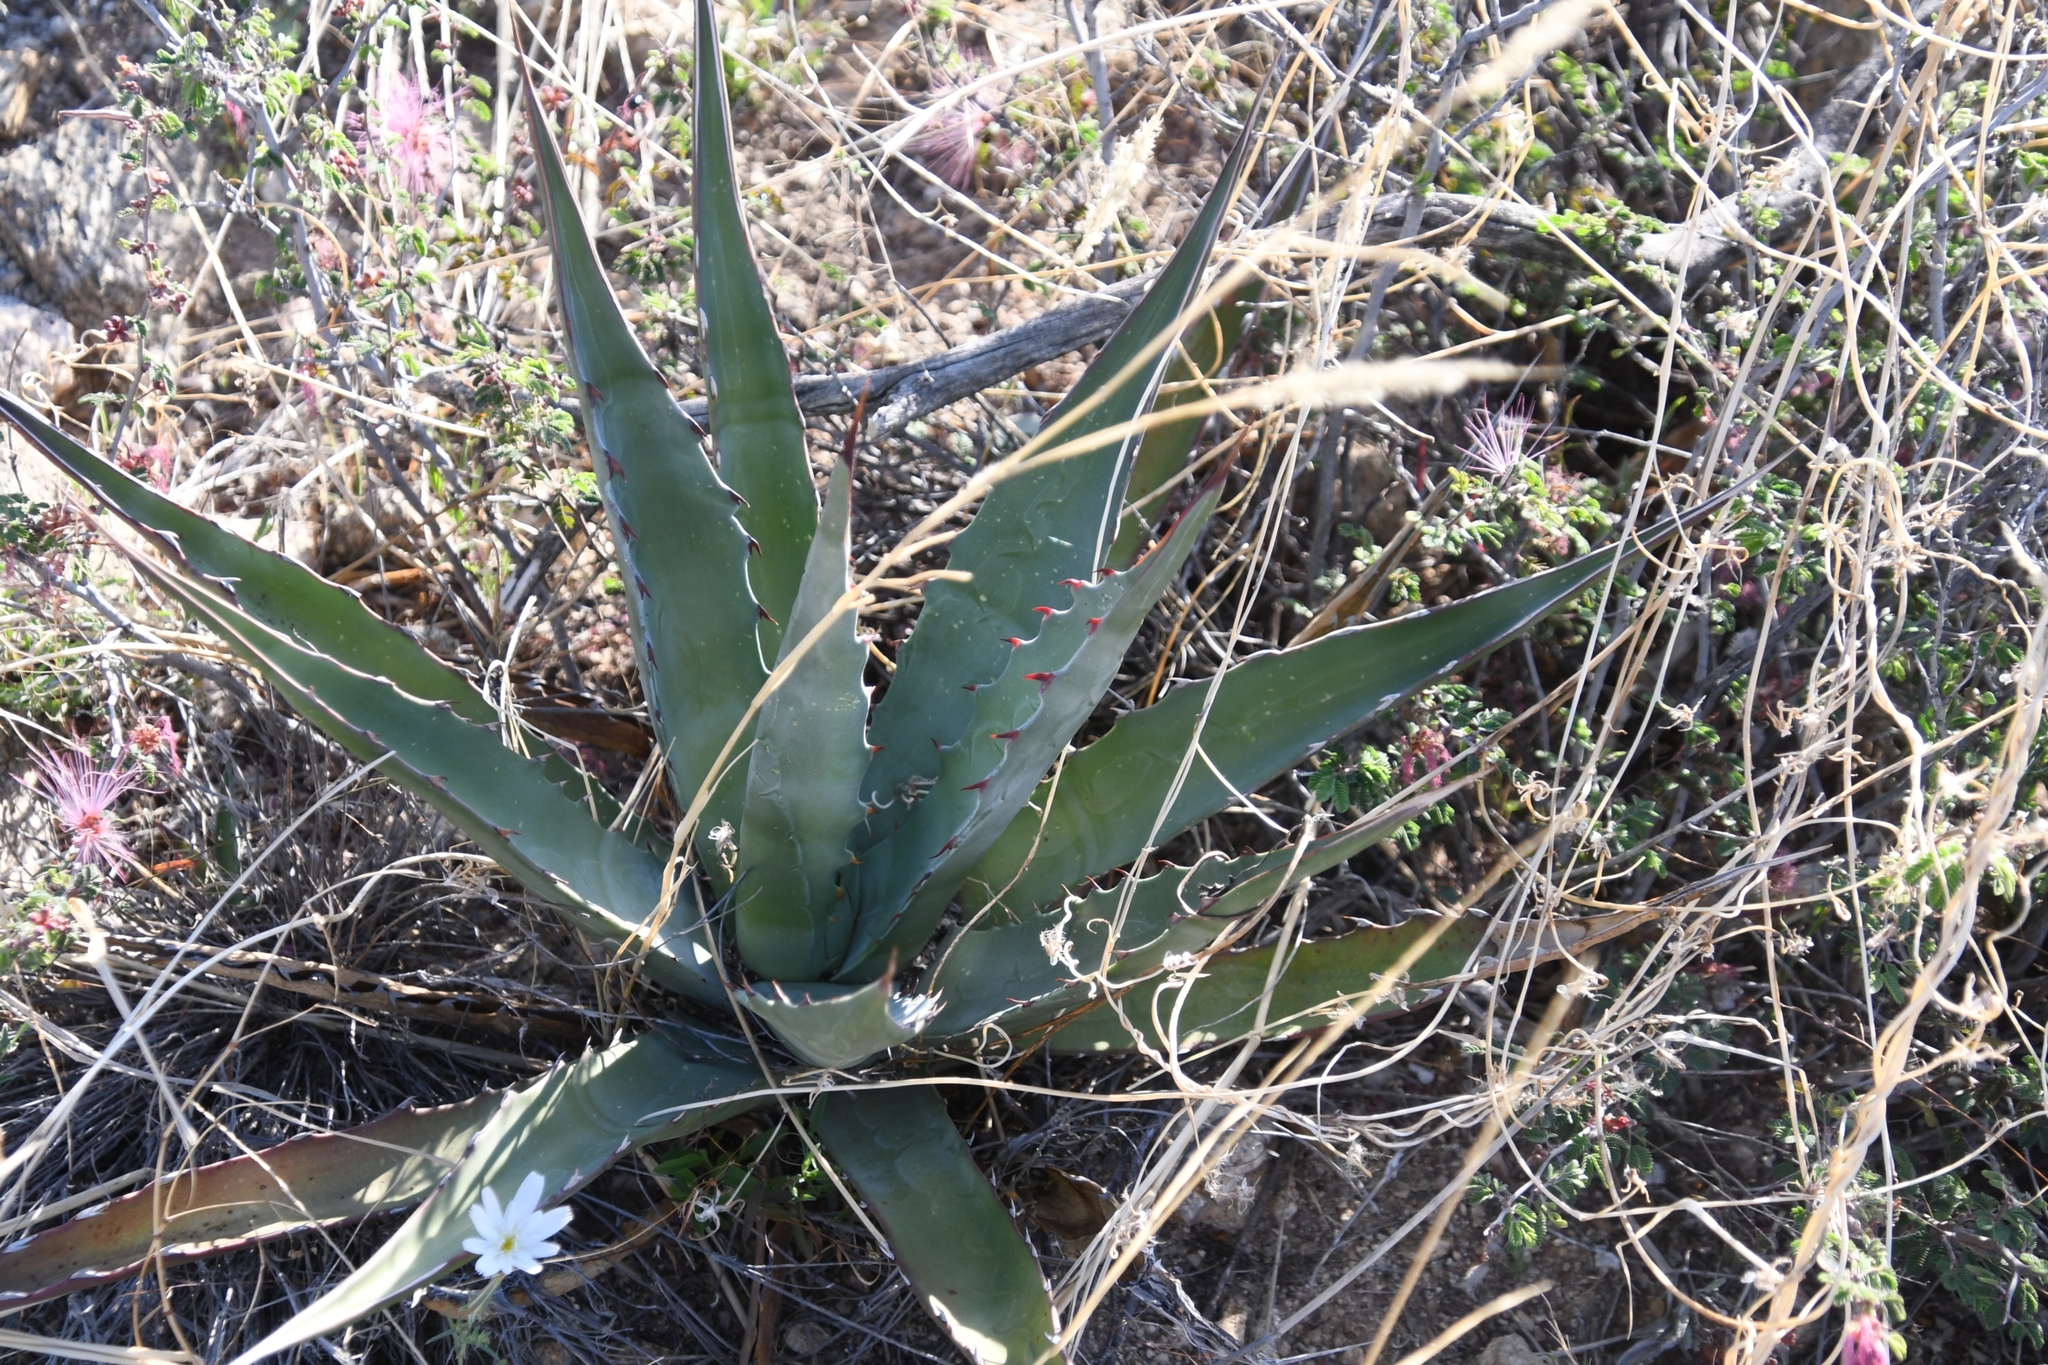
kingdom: Plantae
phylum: Tracheophyta
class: Liliopsida
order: Asparagales
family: Asparagaceae
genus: Agave
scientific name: Agave palmeri
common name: Palmer agave
